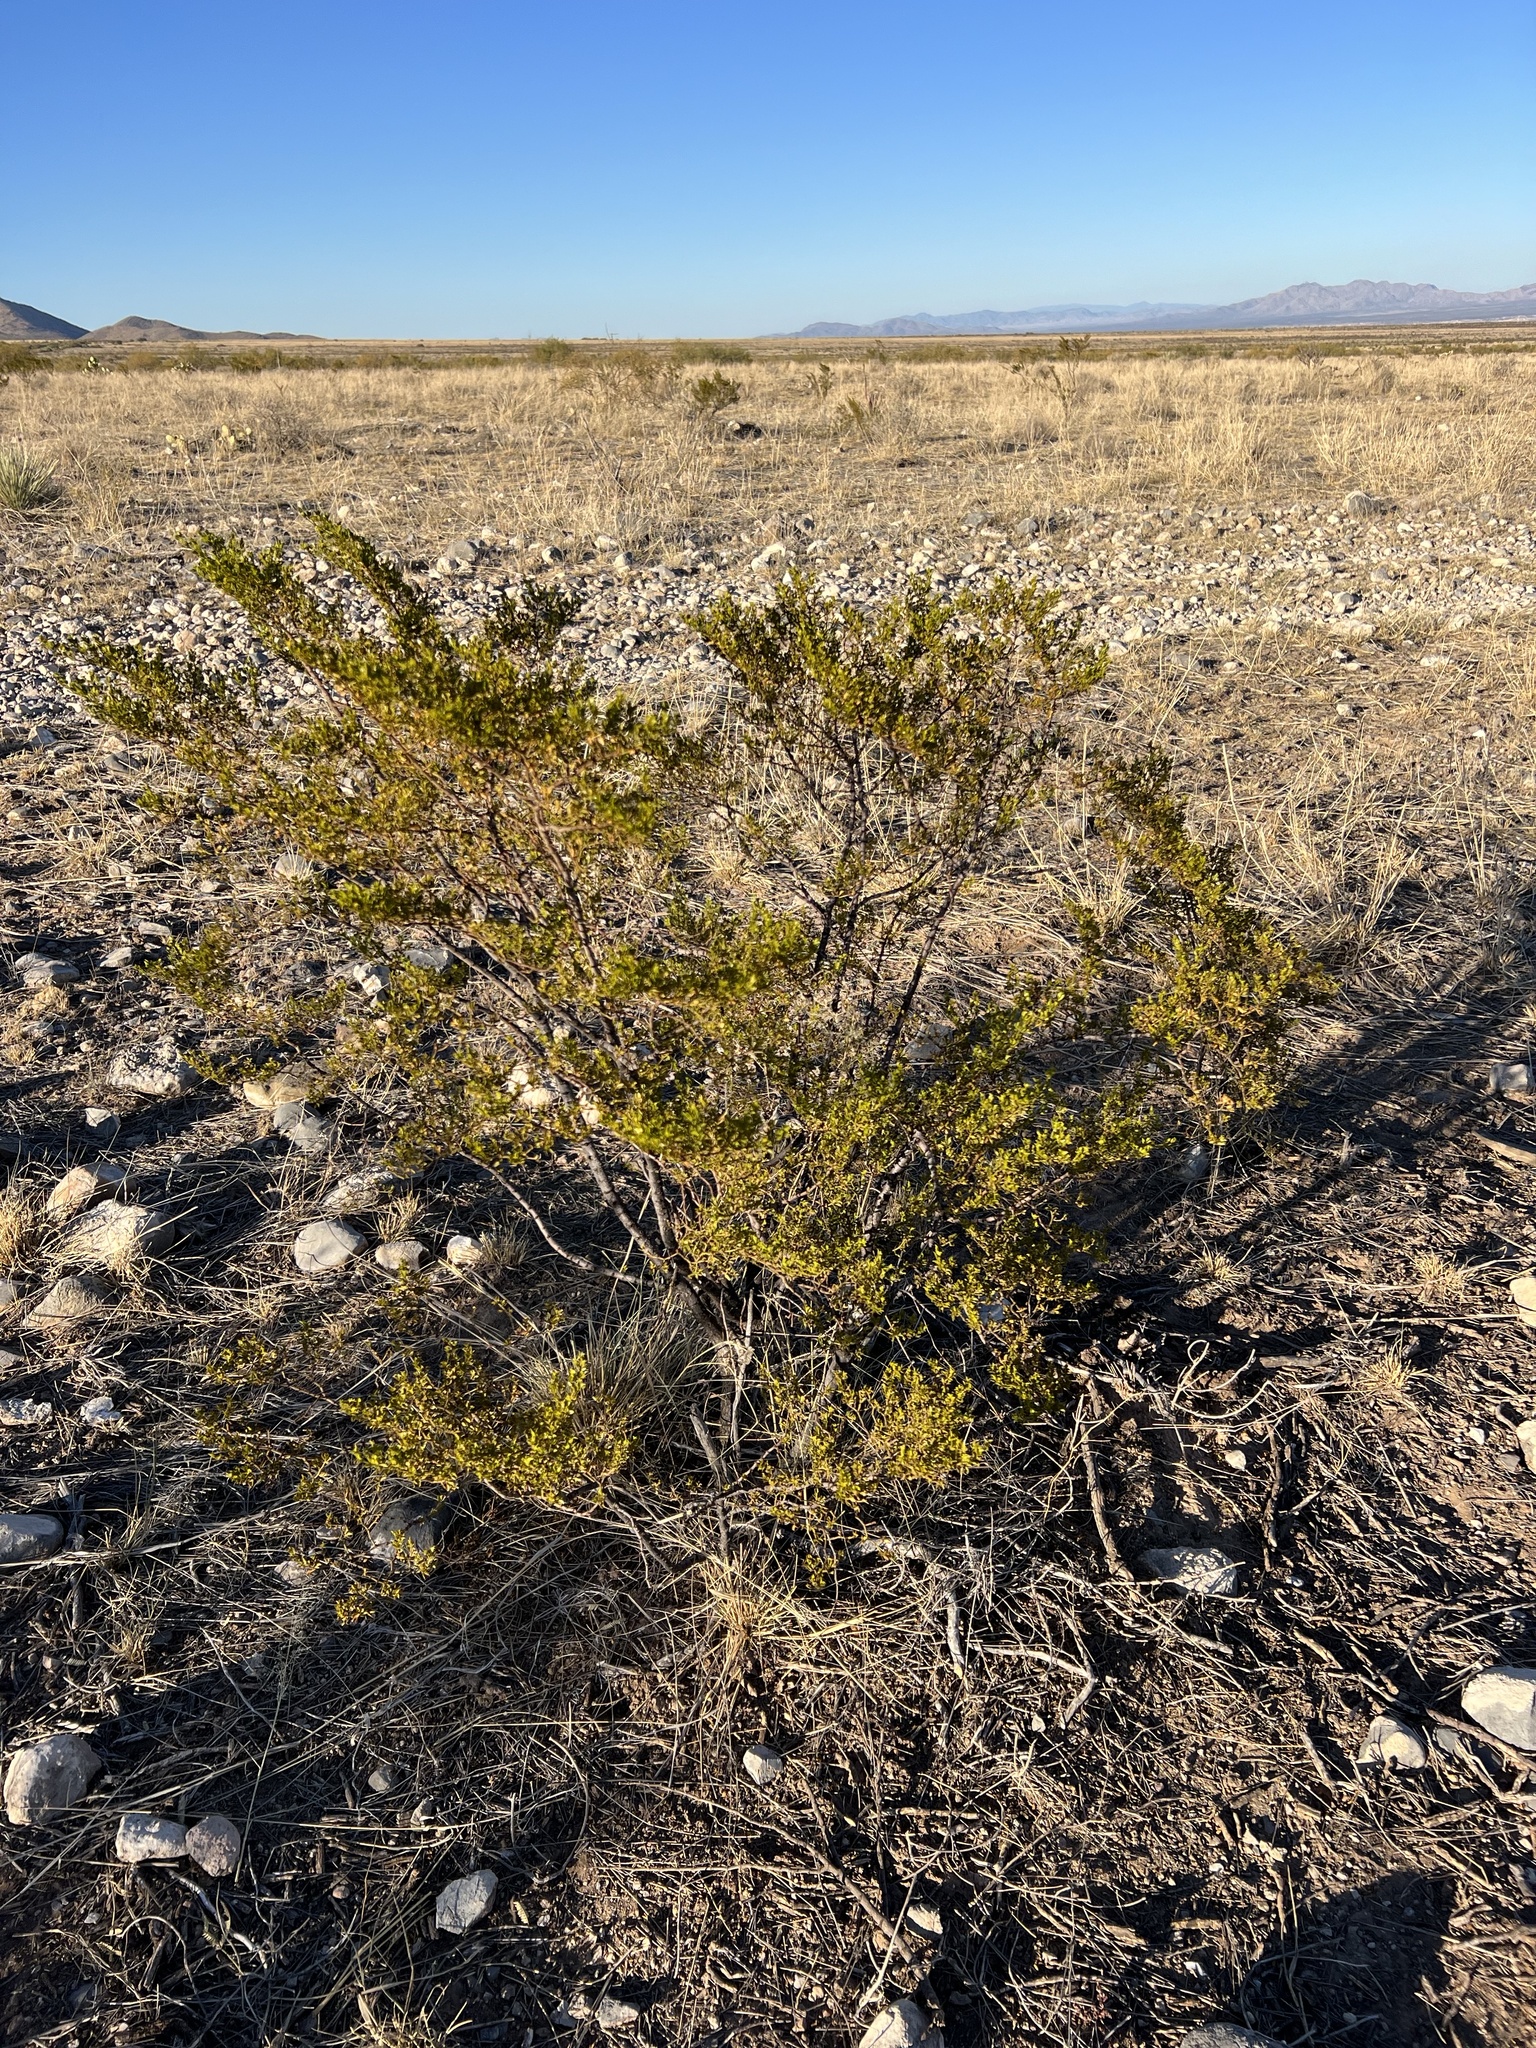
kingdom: Plantae
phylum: Tracheophyta
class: Magnoliopsida
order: Zygophyllales
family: Zygophyllaceae
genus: Larrea
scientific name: Larrea tridentata
